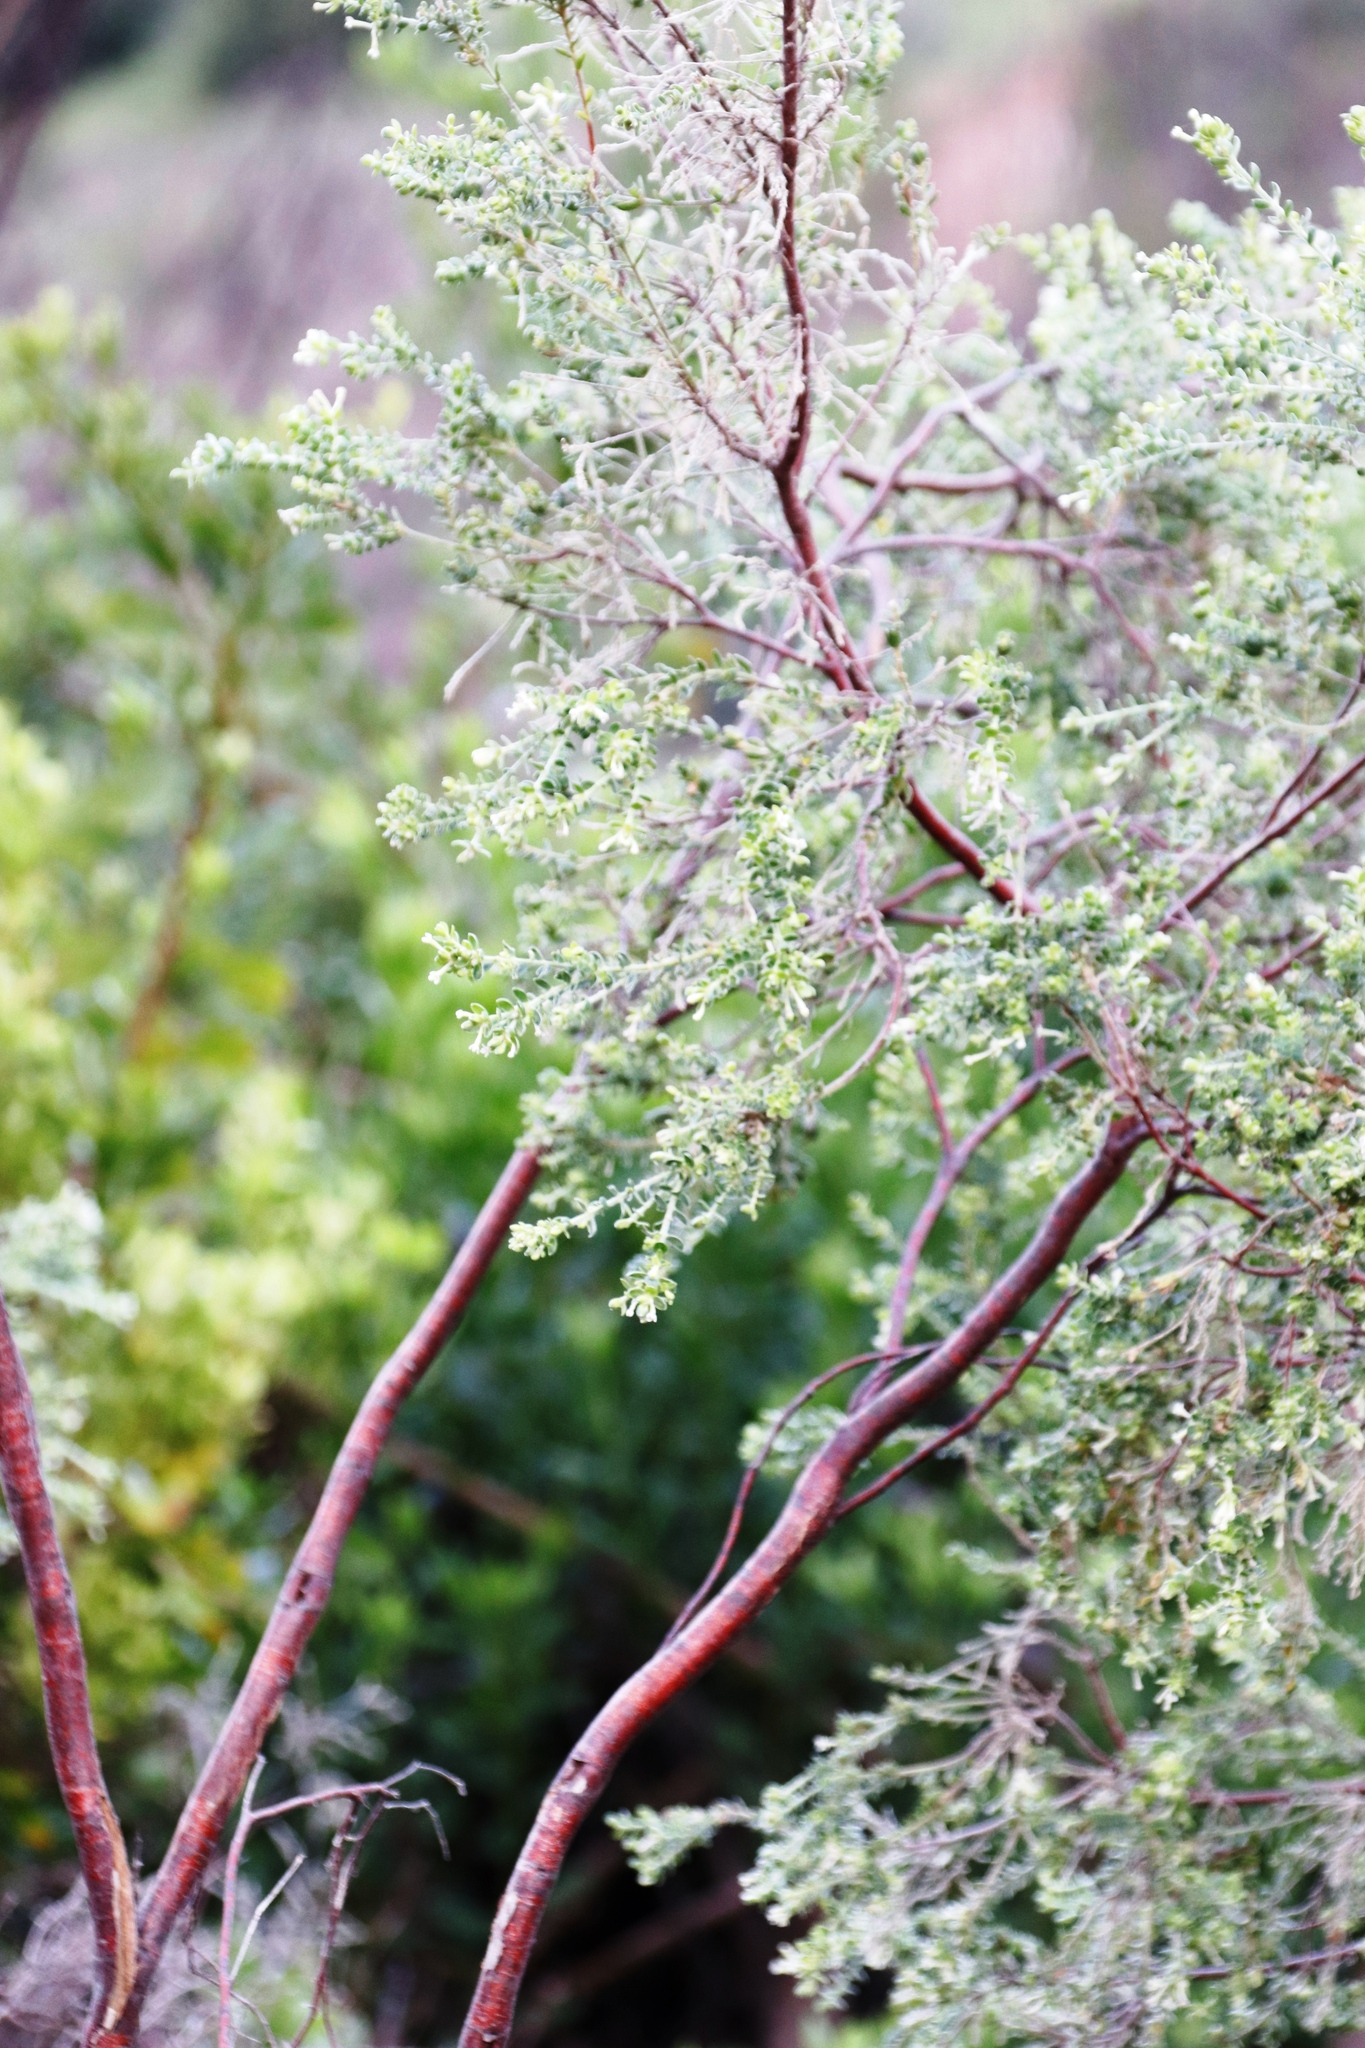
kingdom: Plantae
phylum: Tracheophyta
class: Magnoliopsida
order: Malvales
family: Thymelaeaceae
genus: Gnidia
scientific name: Gnidia sericea
